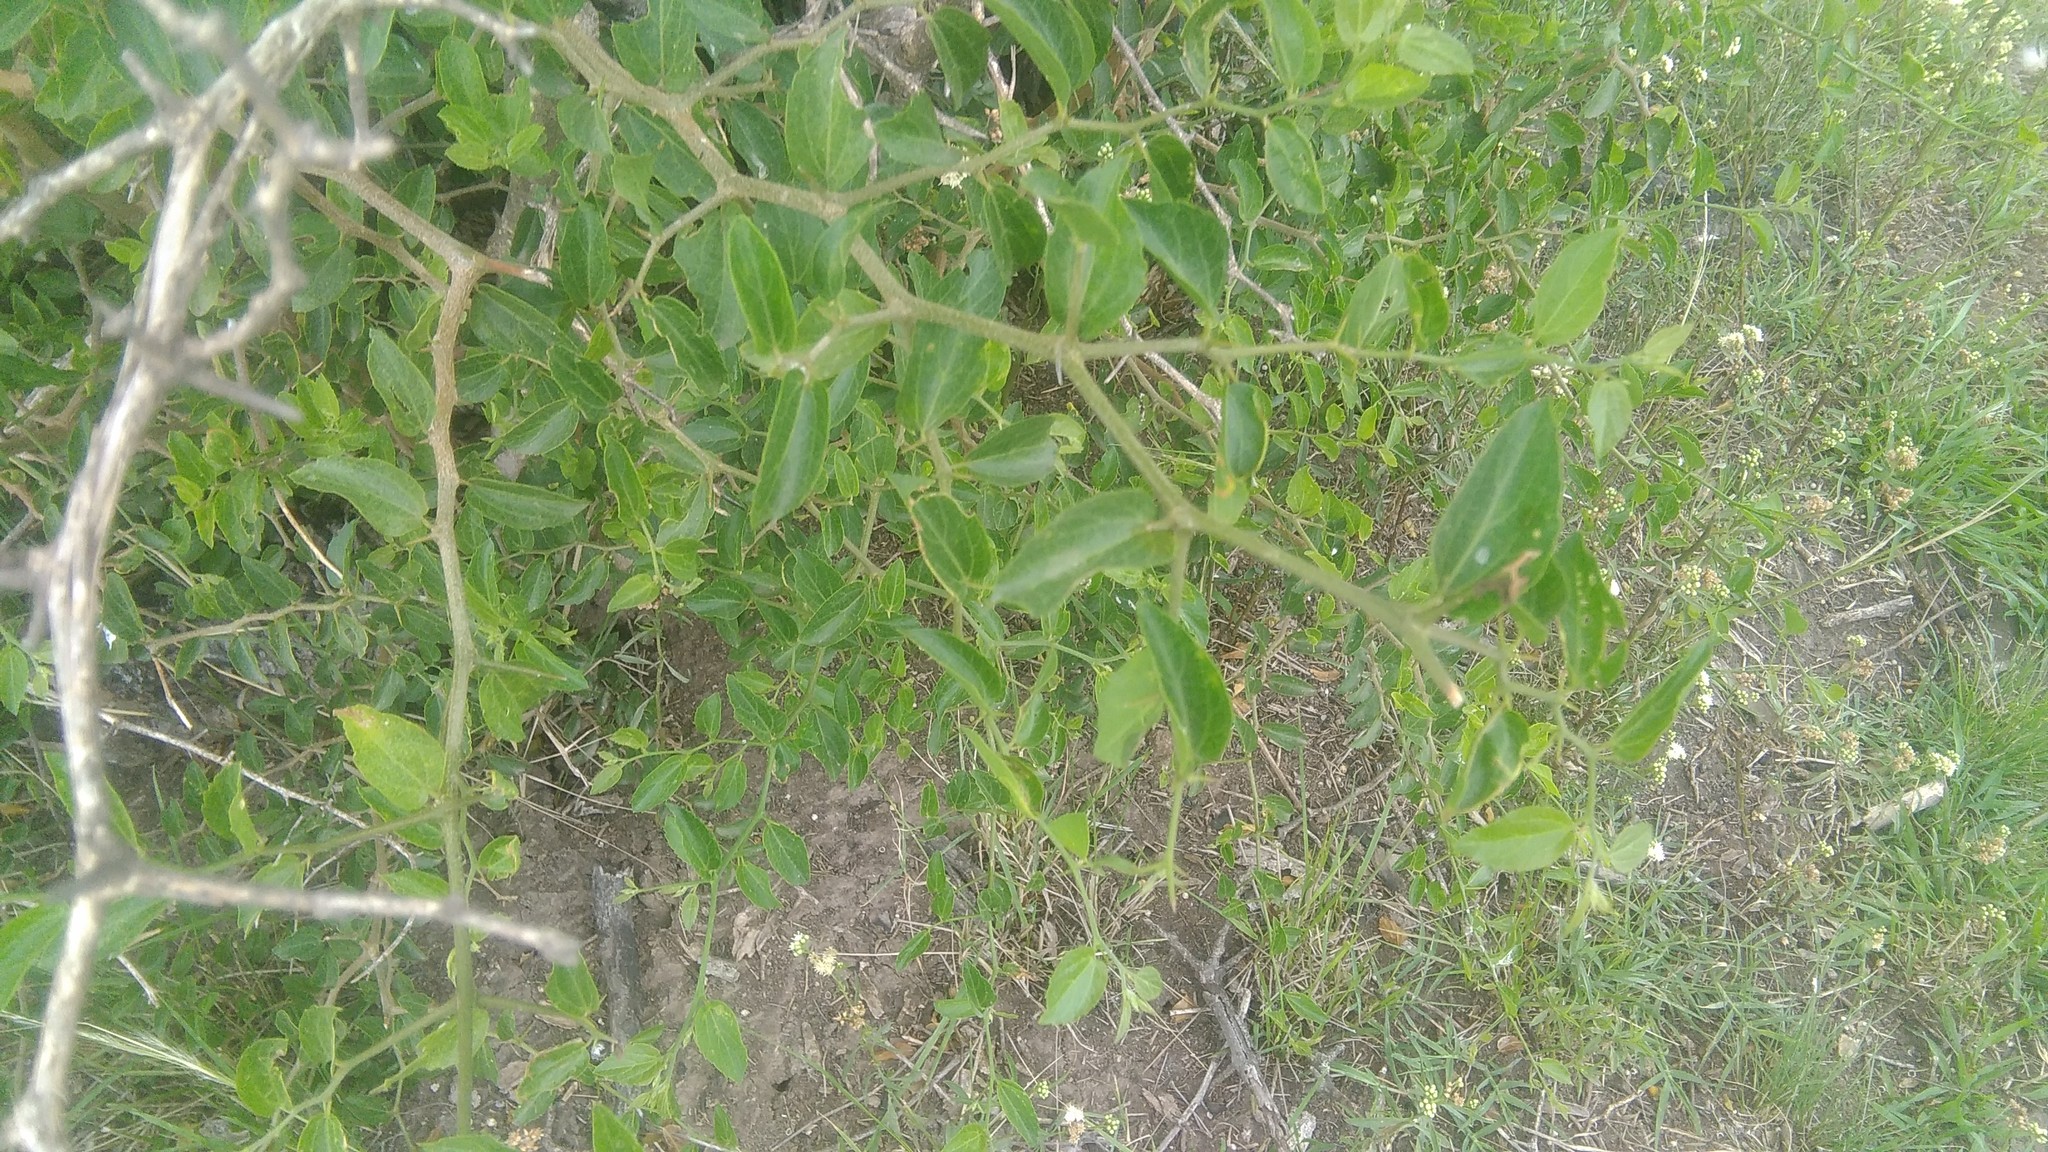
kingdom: Plantae
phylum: Tracheophyta
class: Magnoliopsida
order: Rosales
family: Cannabaceae
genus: Celtis
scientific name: Celtis tala
